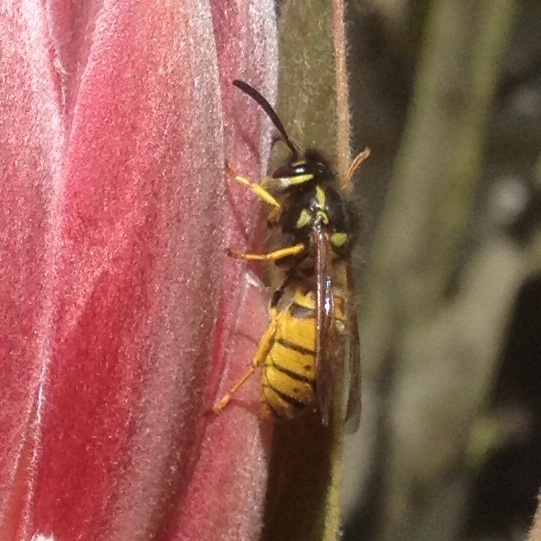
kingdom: Animalia
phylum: Arthropoda
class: Insecta
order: Hymenoptera
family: Vespidae
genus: Vespula
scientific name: Vespula germanica
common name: German wasp
